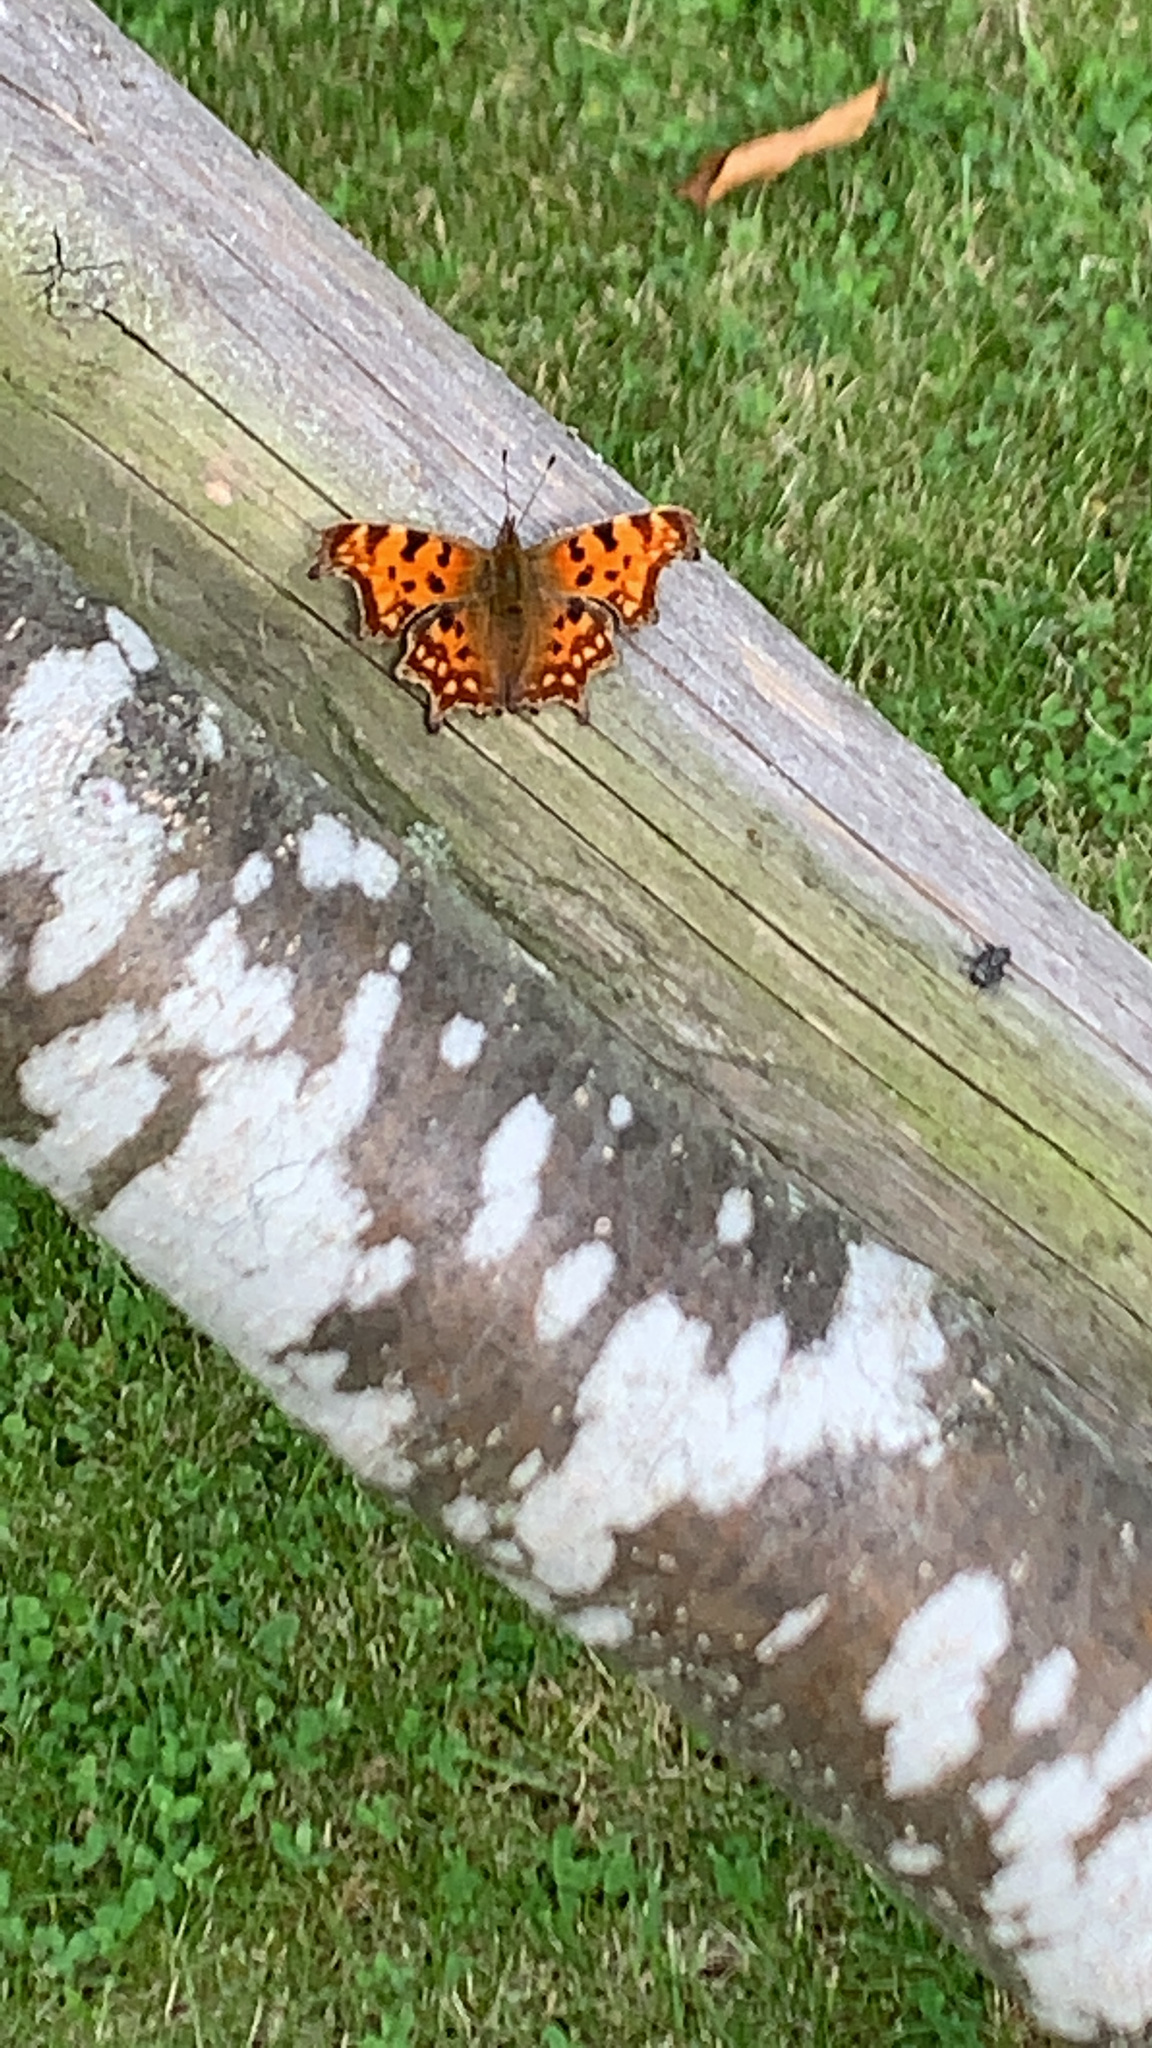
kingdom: Animalia
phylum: Arthropoda
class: Insecta
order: Lepidoptera
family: Nymphalidae
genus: Polygonia
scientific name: Polygonia c-album
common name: Comma
